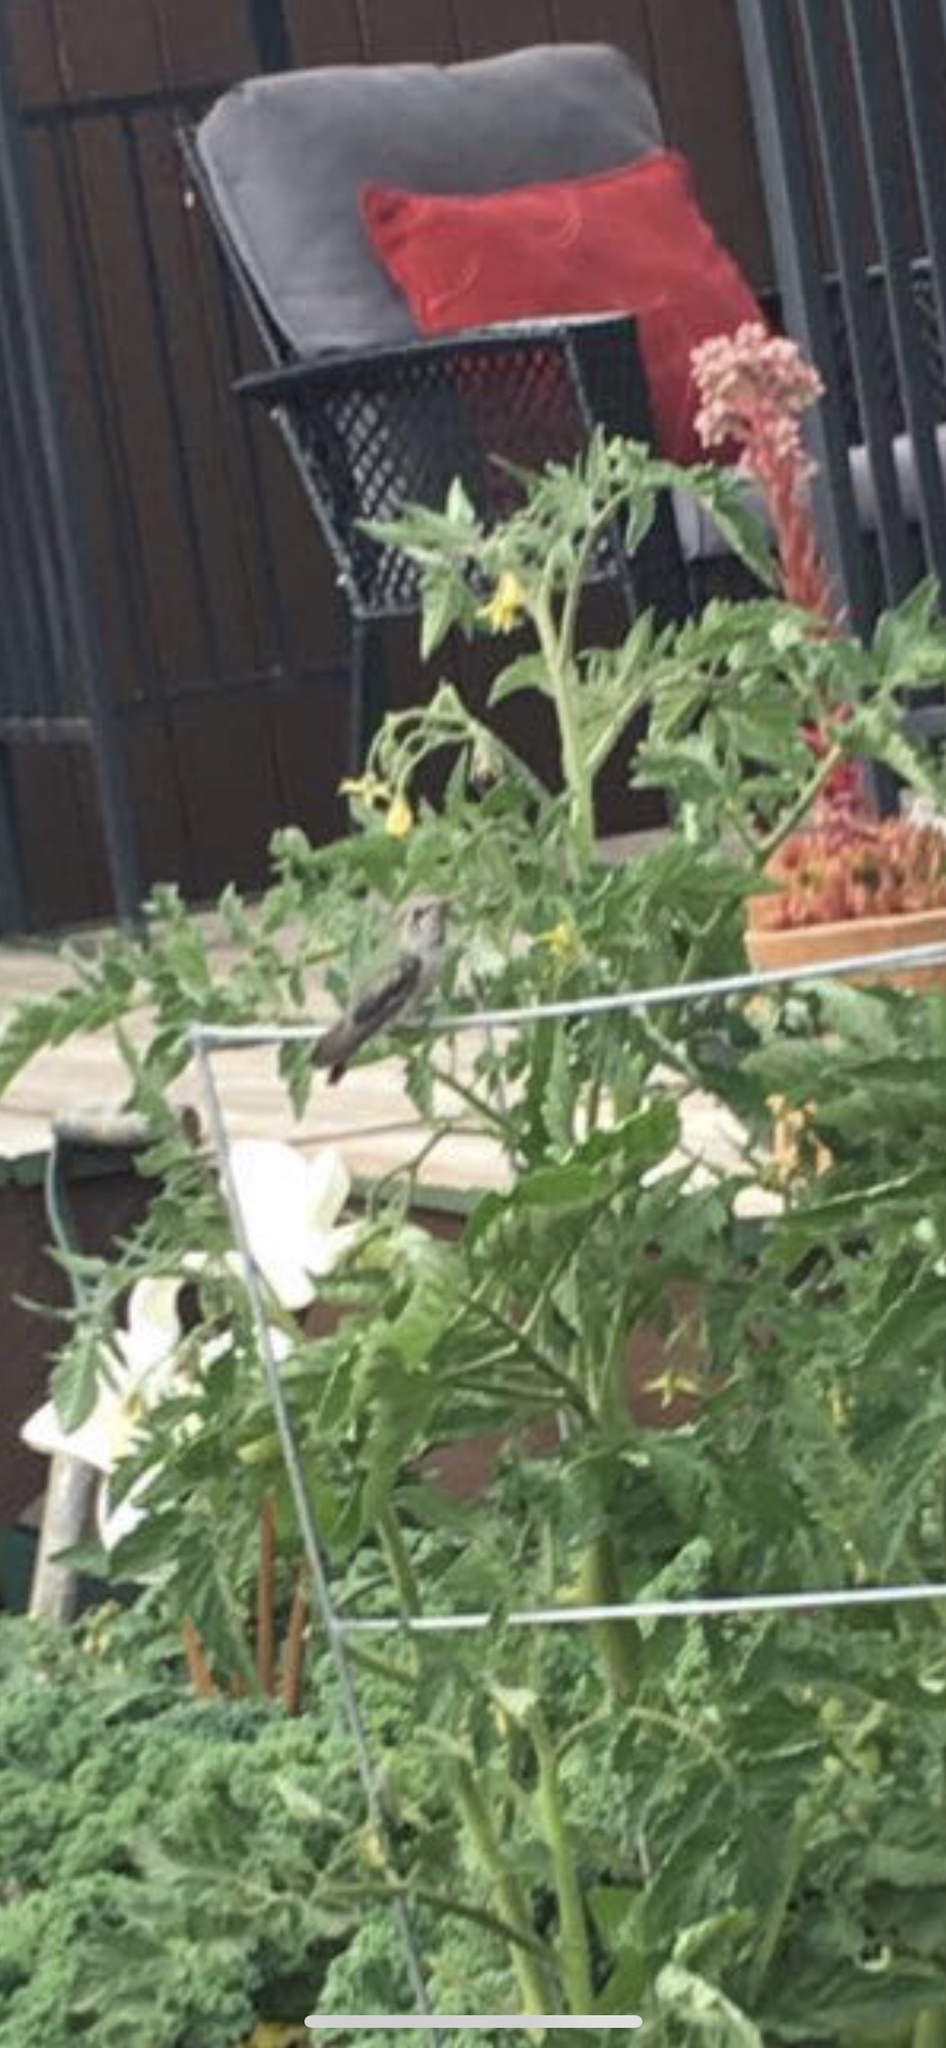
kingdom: Animalia
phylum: Chordata
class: Aves
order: Apodiformes
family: Trochilidae
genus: Calypte
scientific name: Calypte anna
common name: Anna's hummingbird
